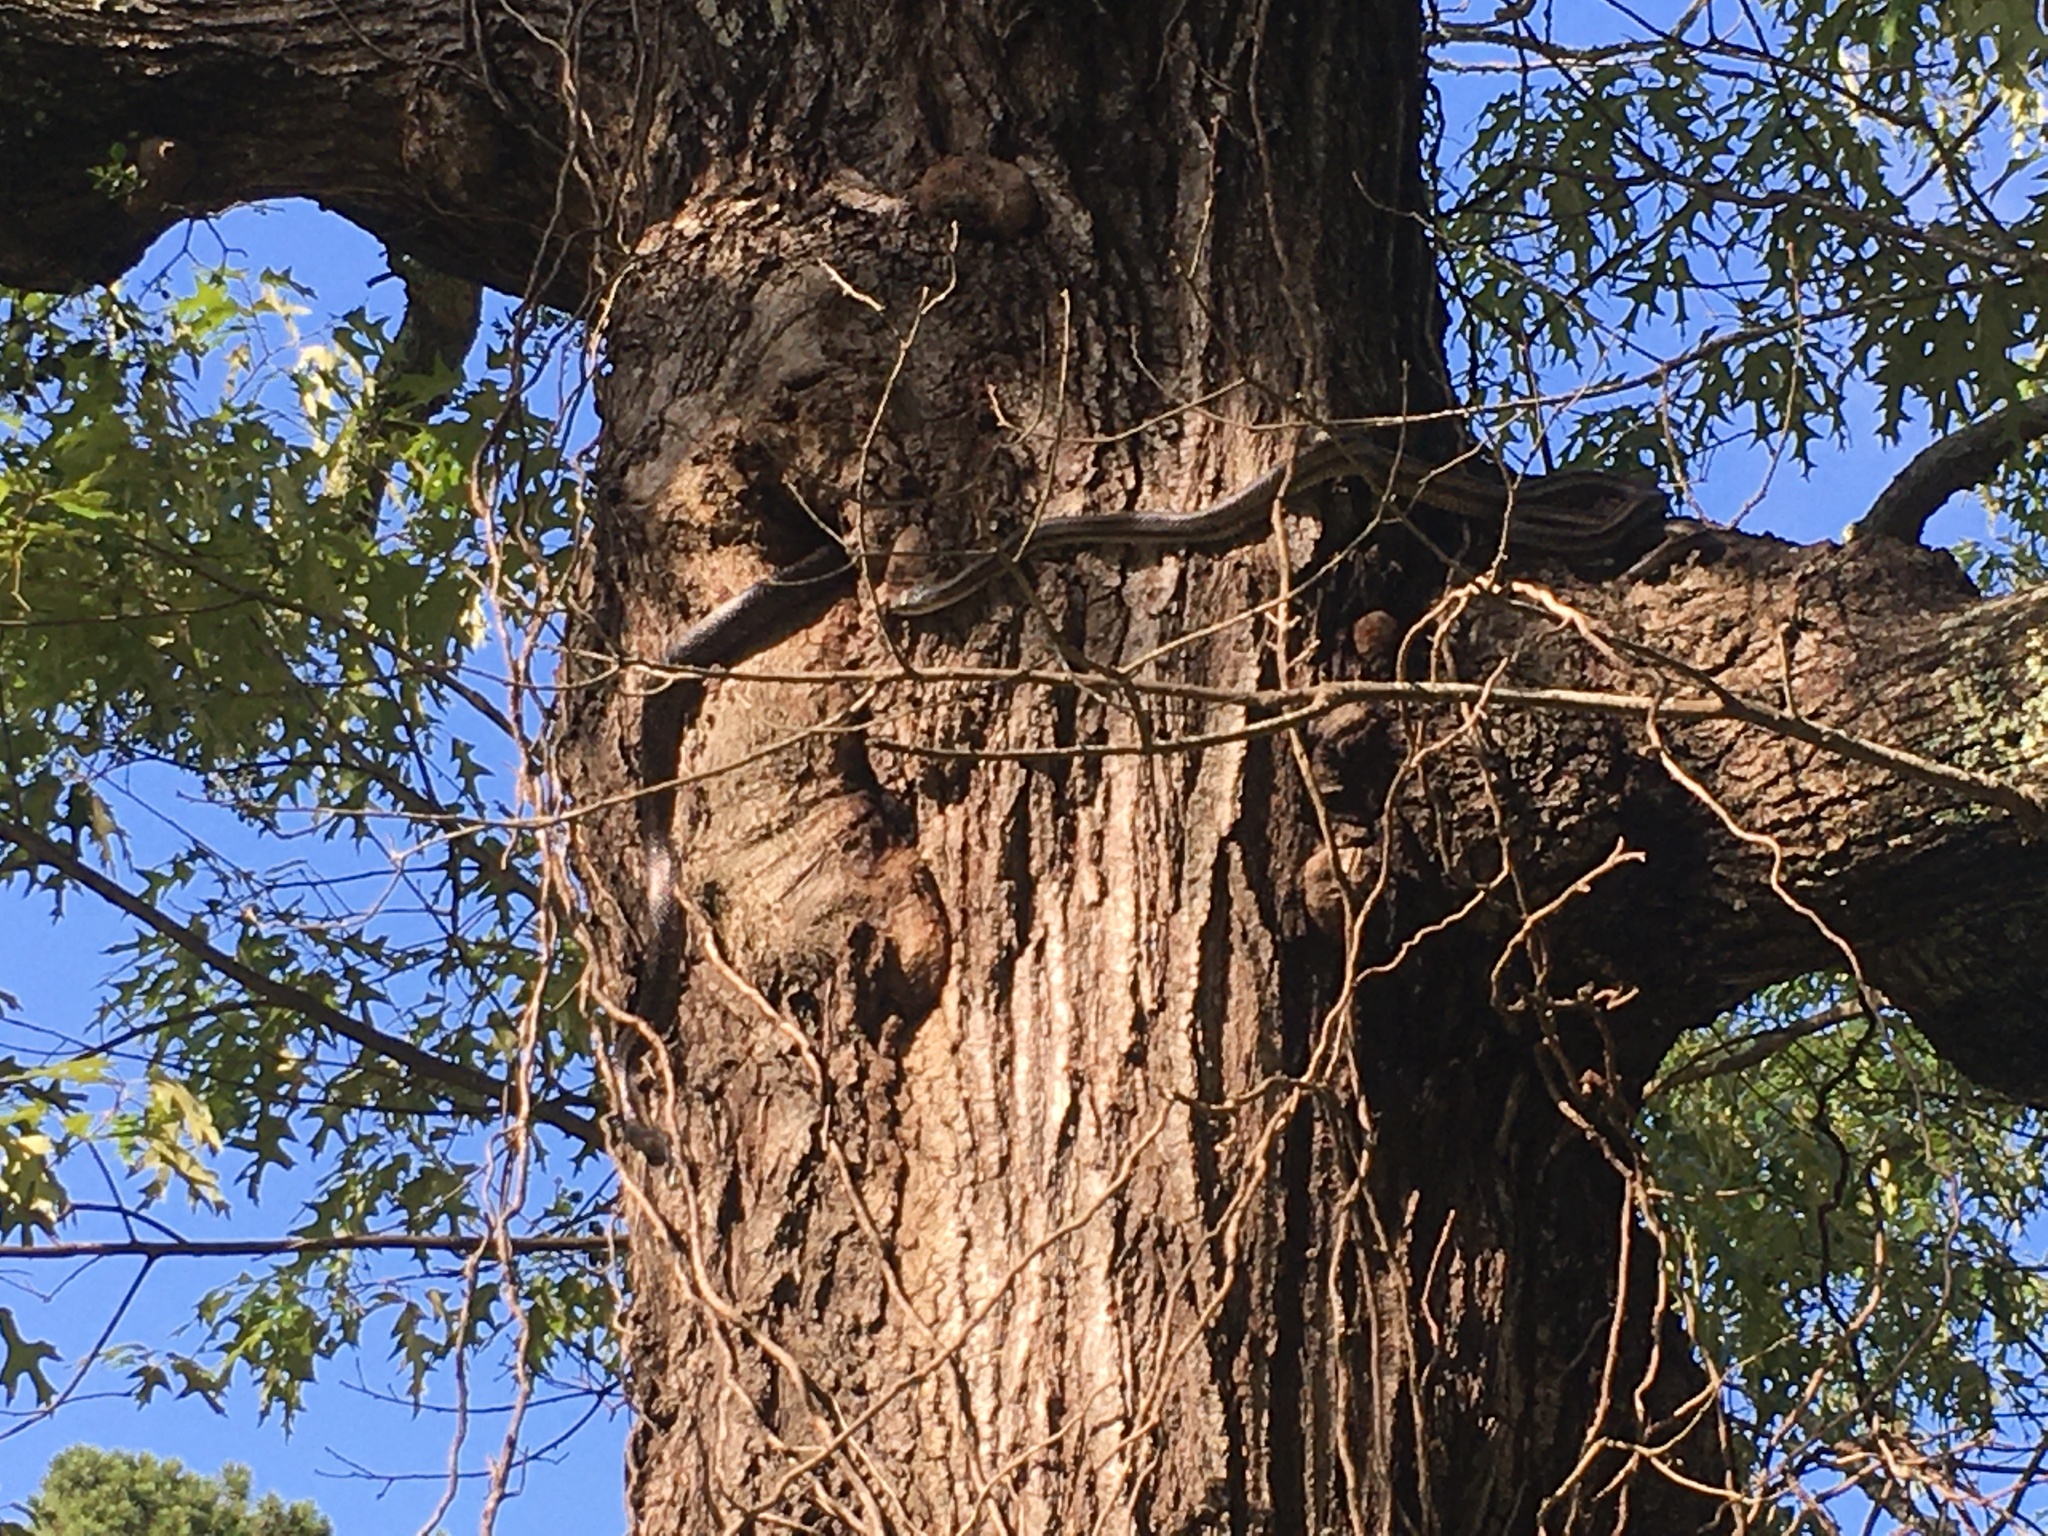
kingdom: Animalia
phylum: Chordata
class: Squamata
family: Colubridae
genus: Pantherophis
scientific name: Pantherophis alleghaniensis
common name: Eastern rat snake
